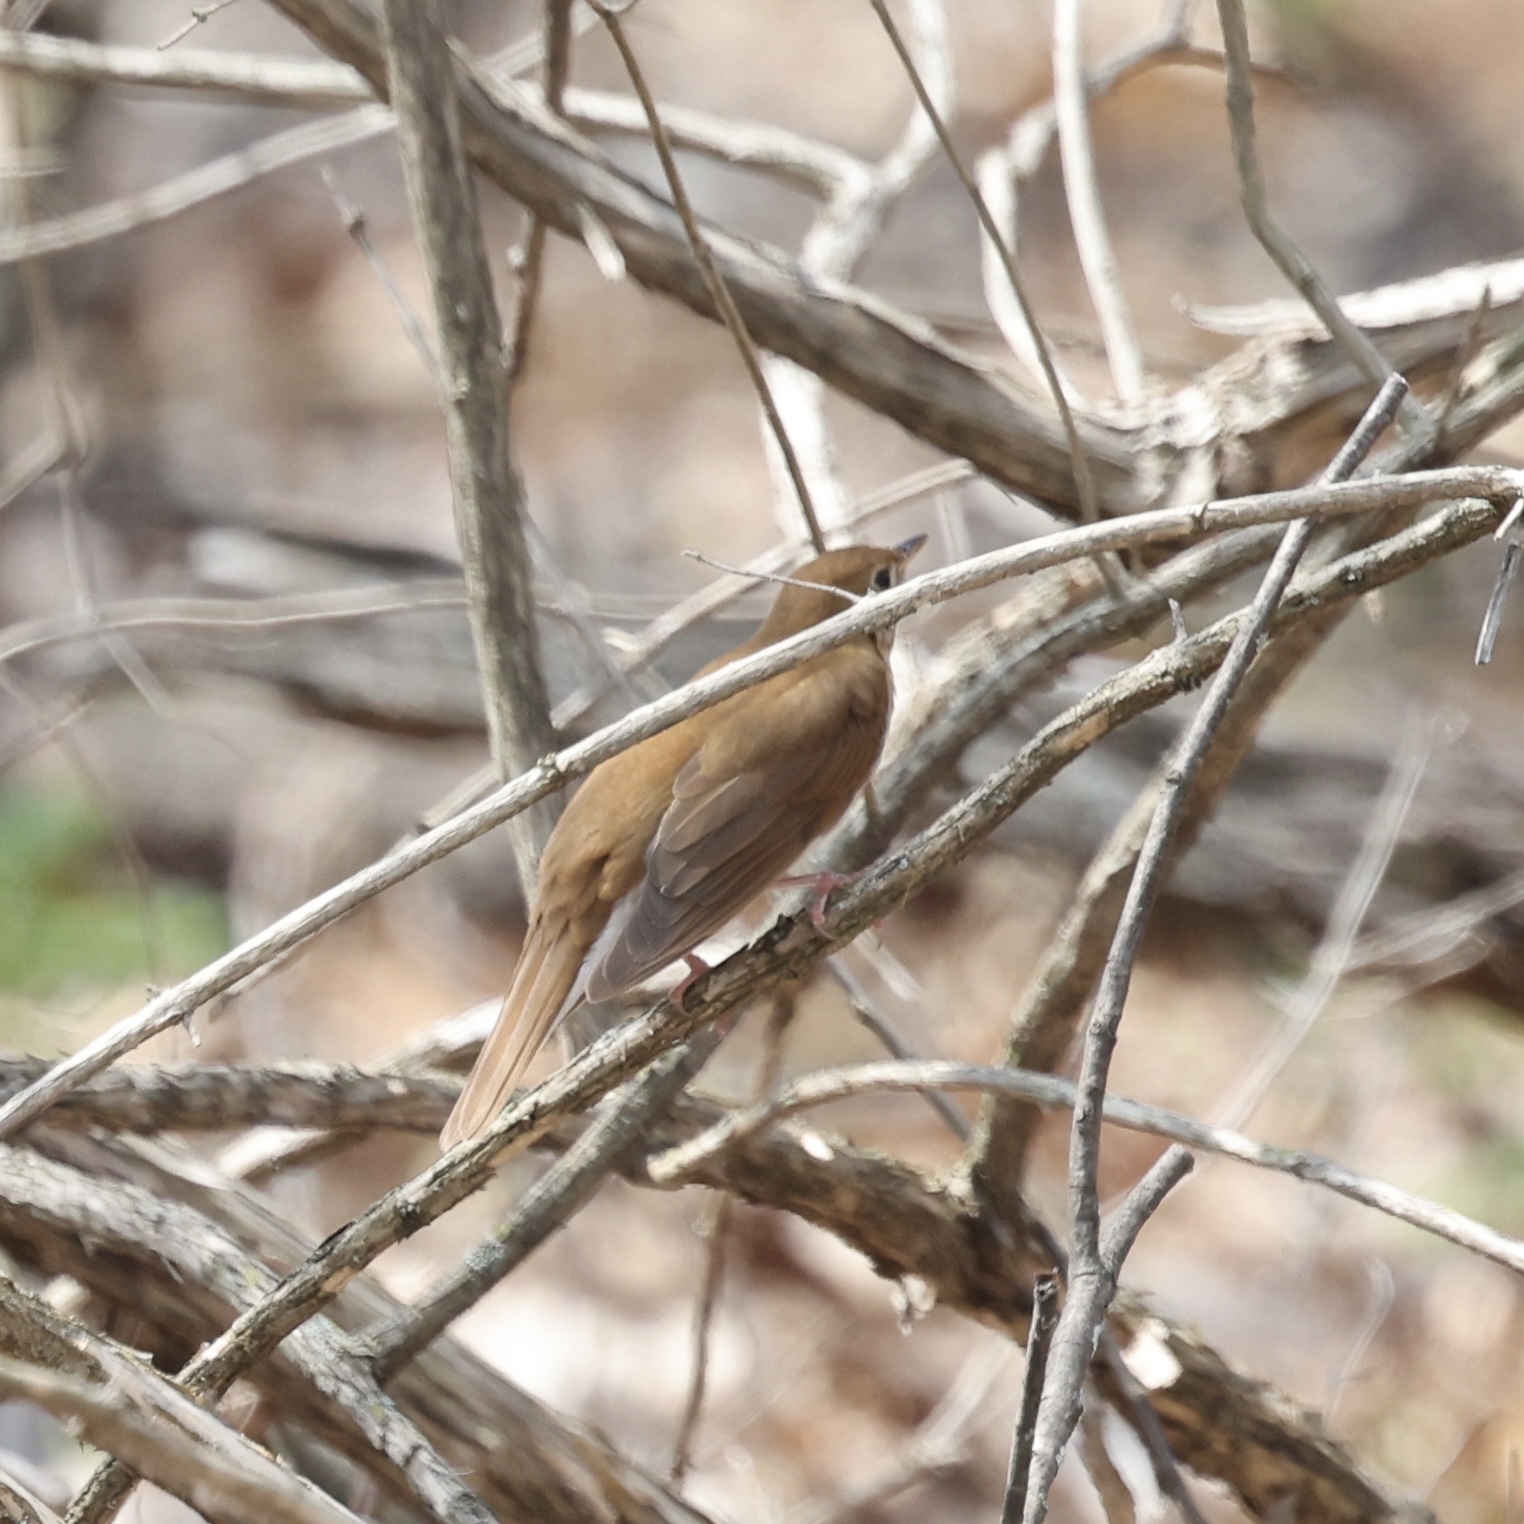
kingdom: Animalia
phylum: Chordata
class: Aves
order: Passeriformes
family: Turdidae
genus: Catharus
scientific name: Catharus fuscescens
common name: Veery
